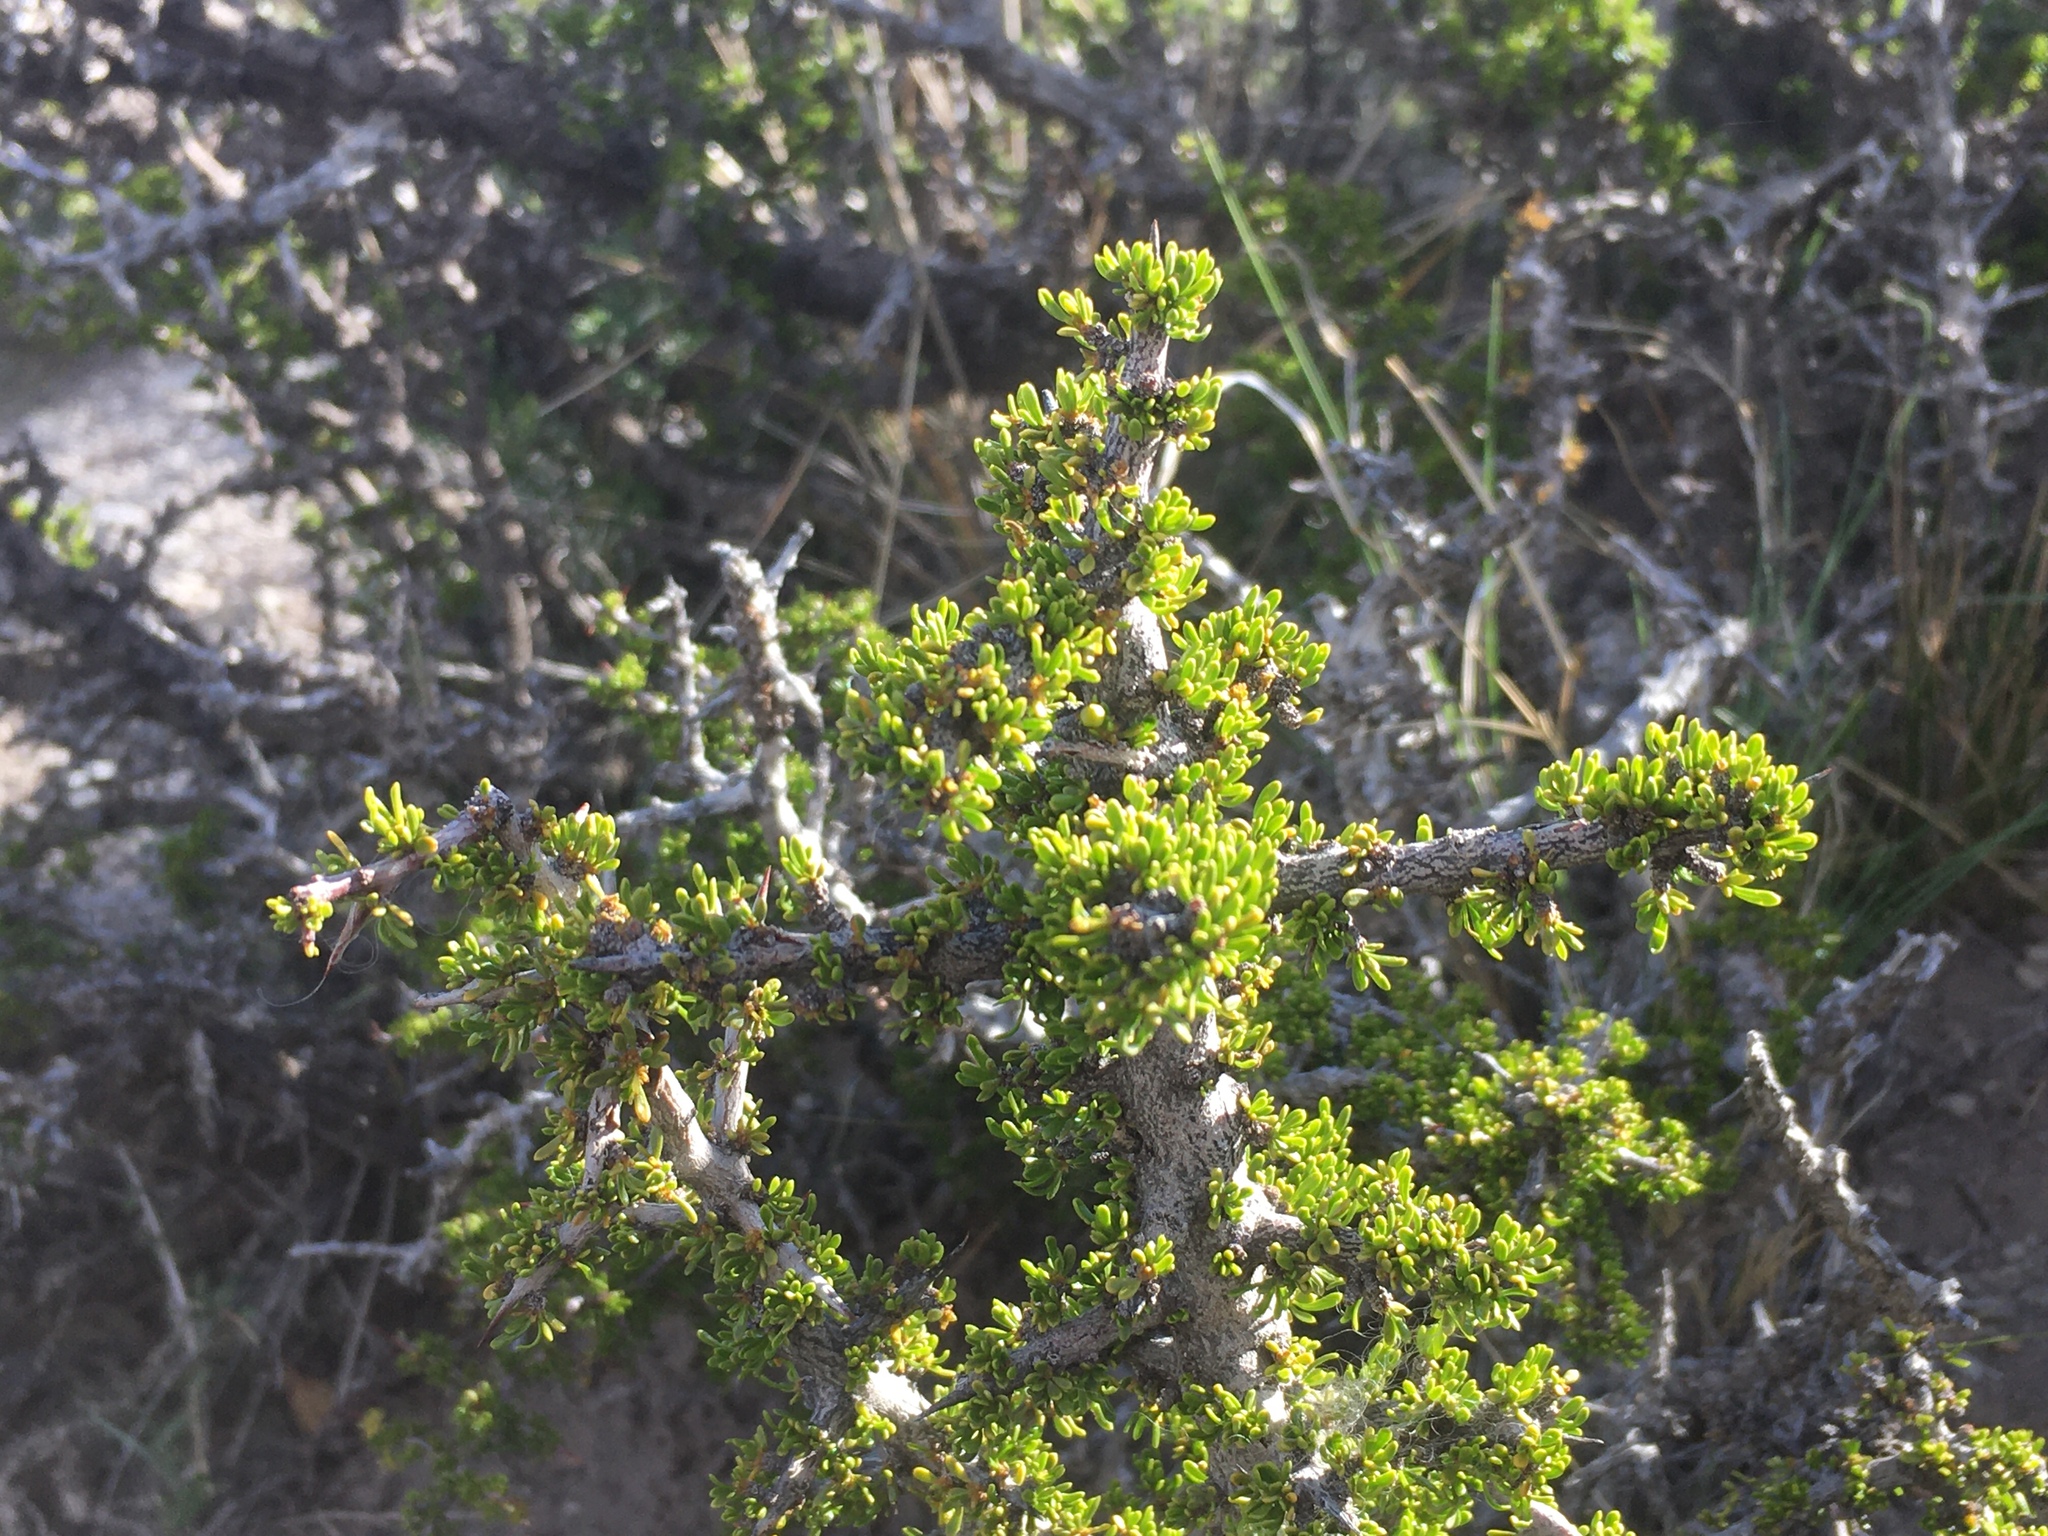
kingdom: Plantae
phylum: Tracheophyta
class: Magnoliopsida
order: Solanales
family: Solanaceae
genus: Lycium
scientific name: Lycium ameghinoi
